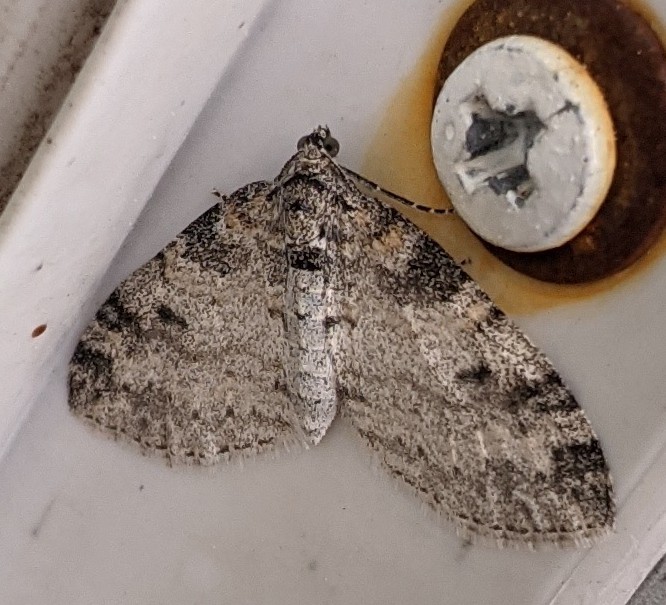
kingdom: Animalia
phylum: Arthropoda
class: Insecta
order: Lepidoptera
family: Geometridae
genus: Lobophora
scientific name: Lobophora nivigerata
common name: Powdered bigwing
